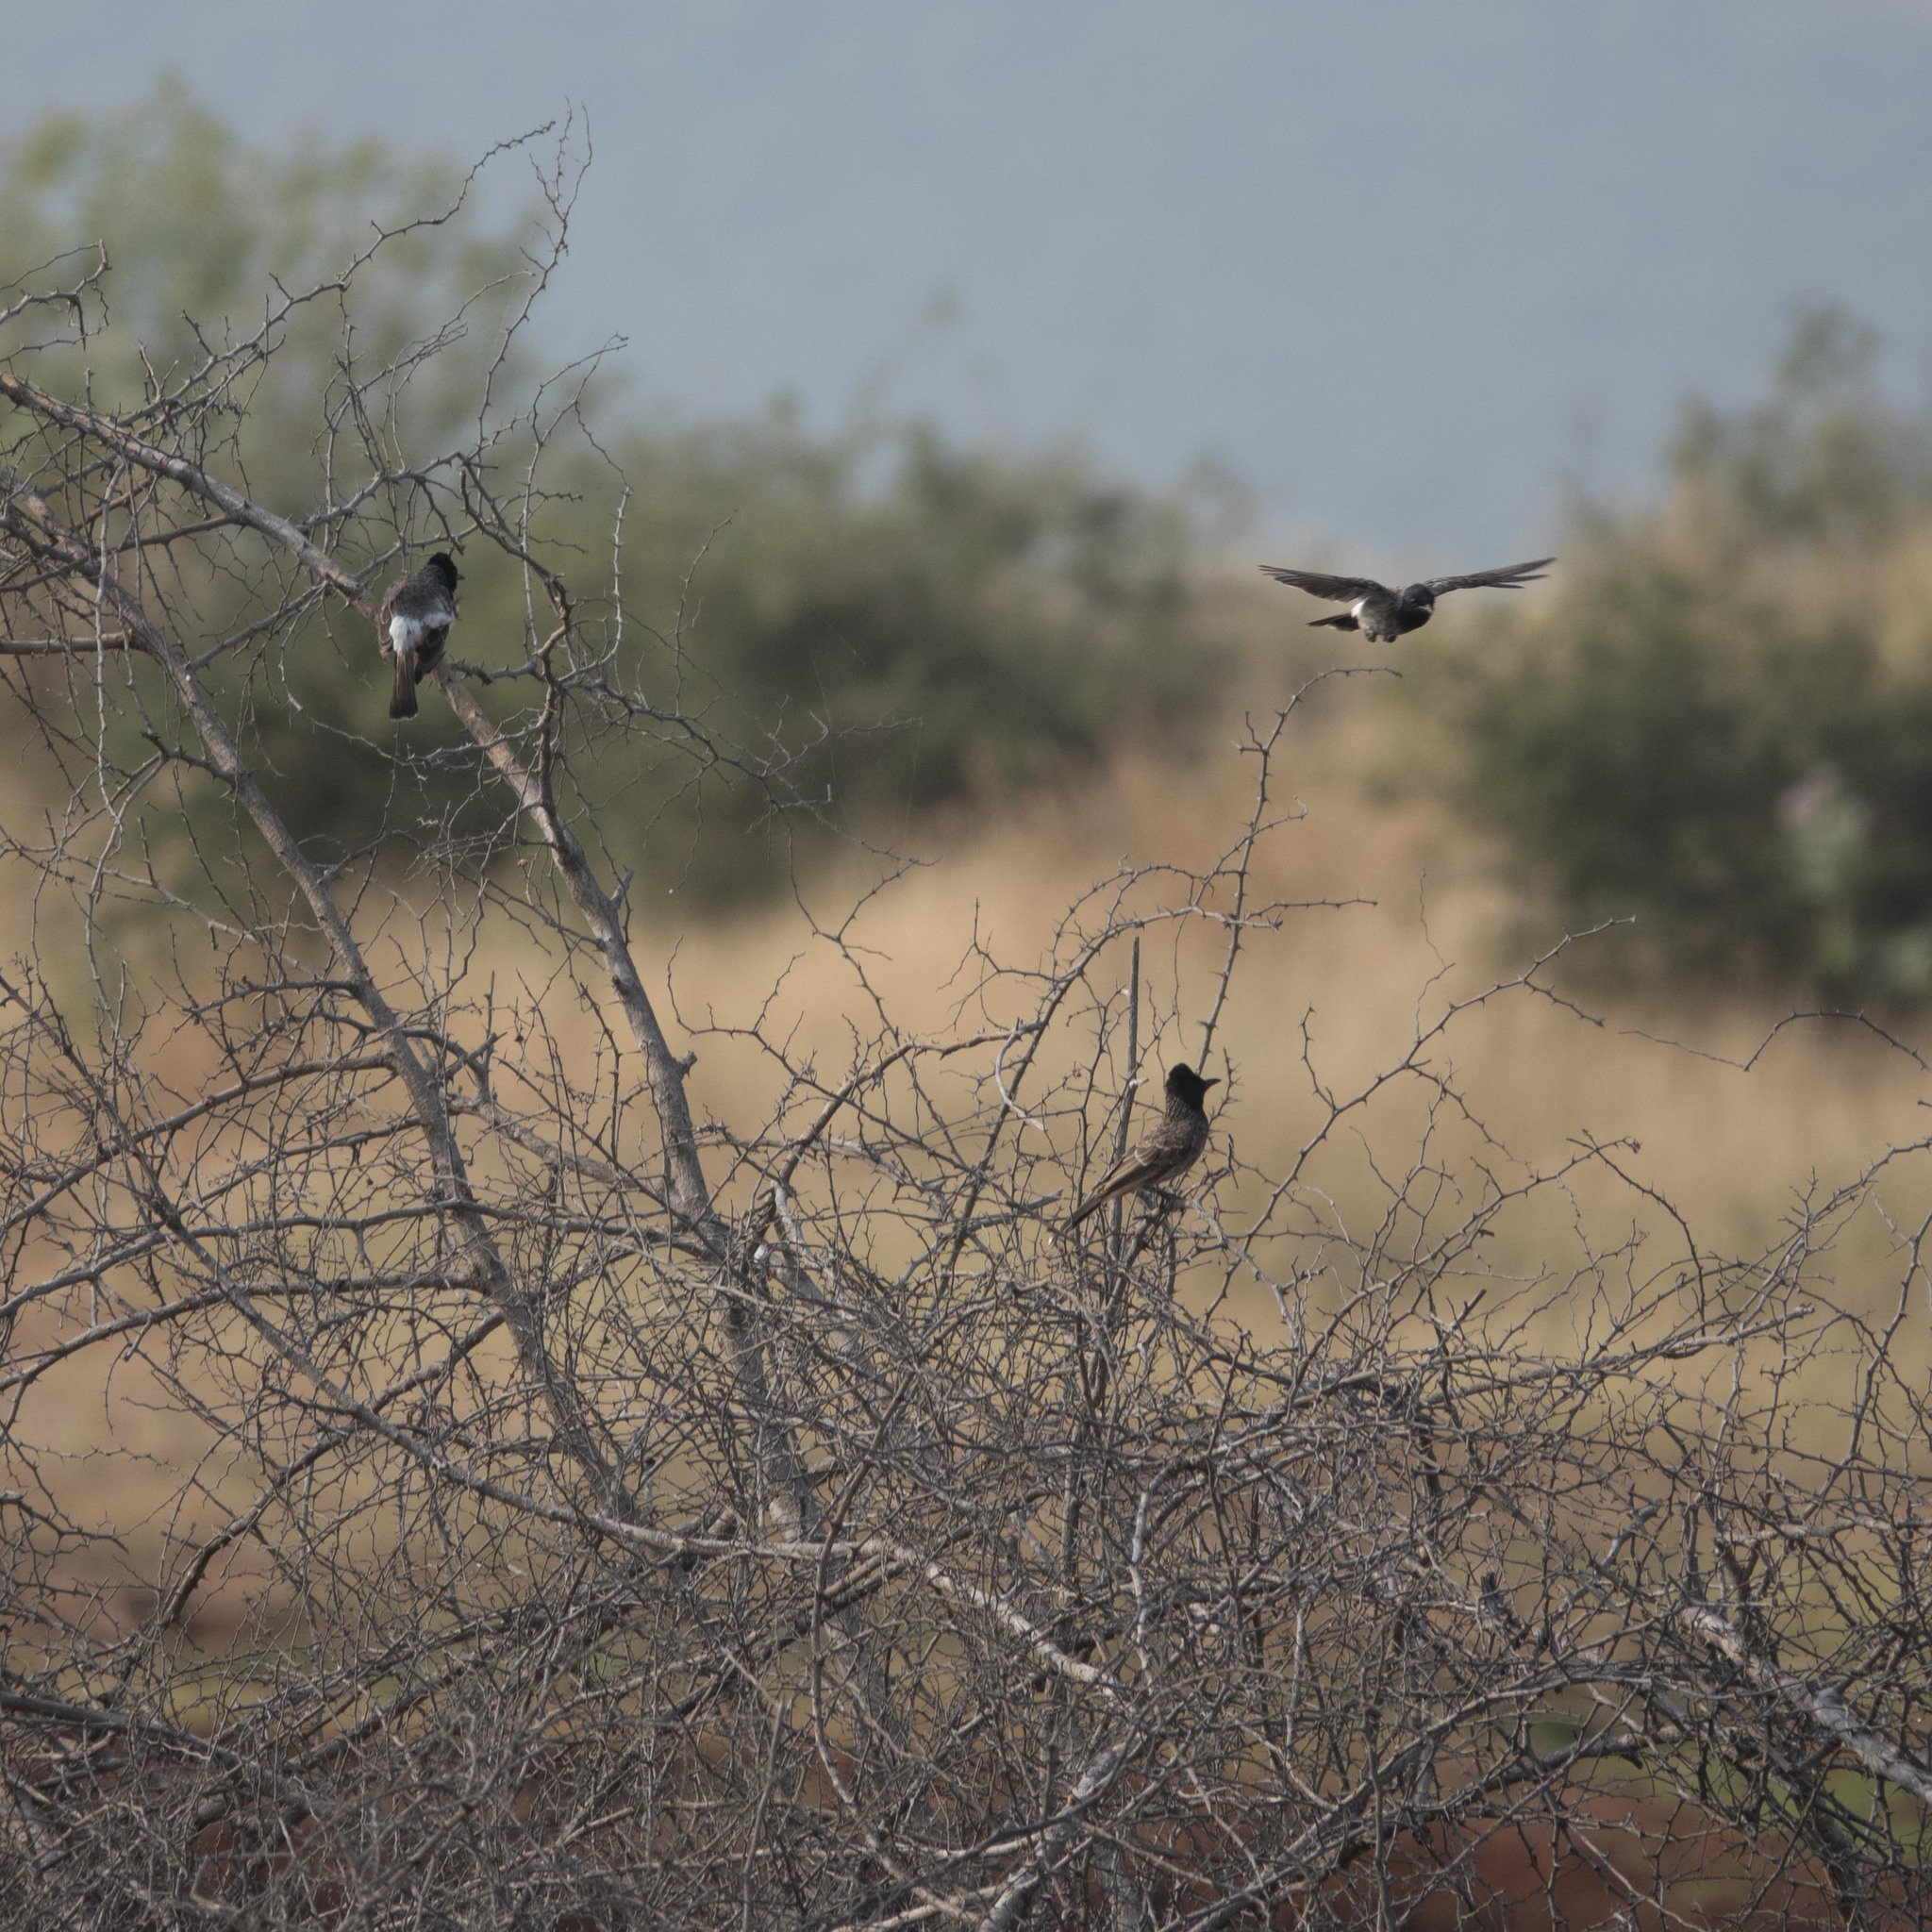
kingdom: Animalia
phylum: Chordata
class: Aves
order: Passeriformes
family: Pycnonotidae
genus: Pycnonotus
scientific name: Pycnonotus cafer
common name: Red-vented bulbul
